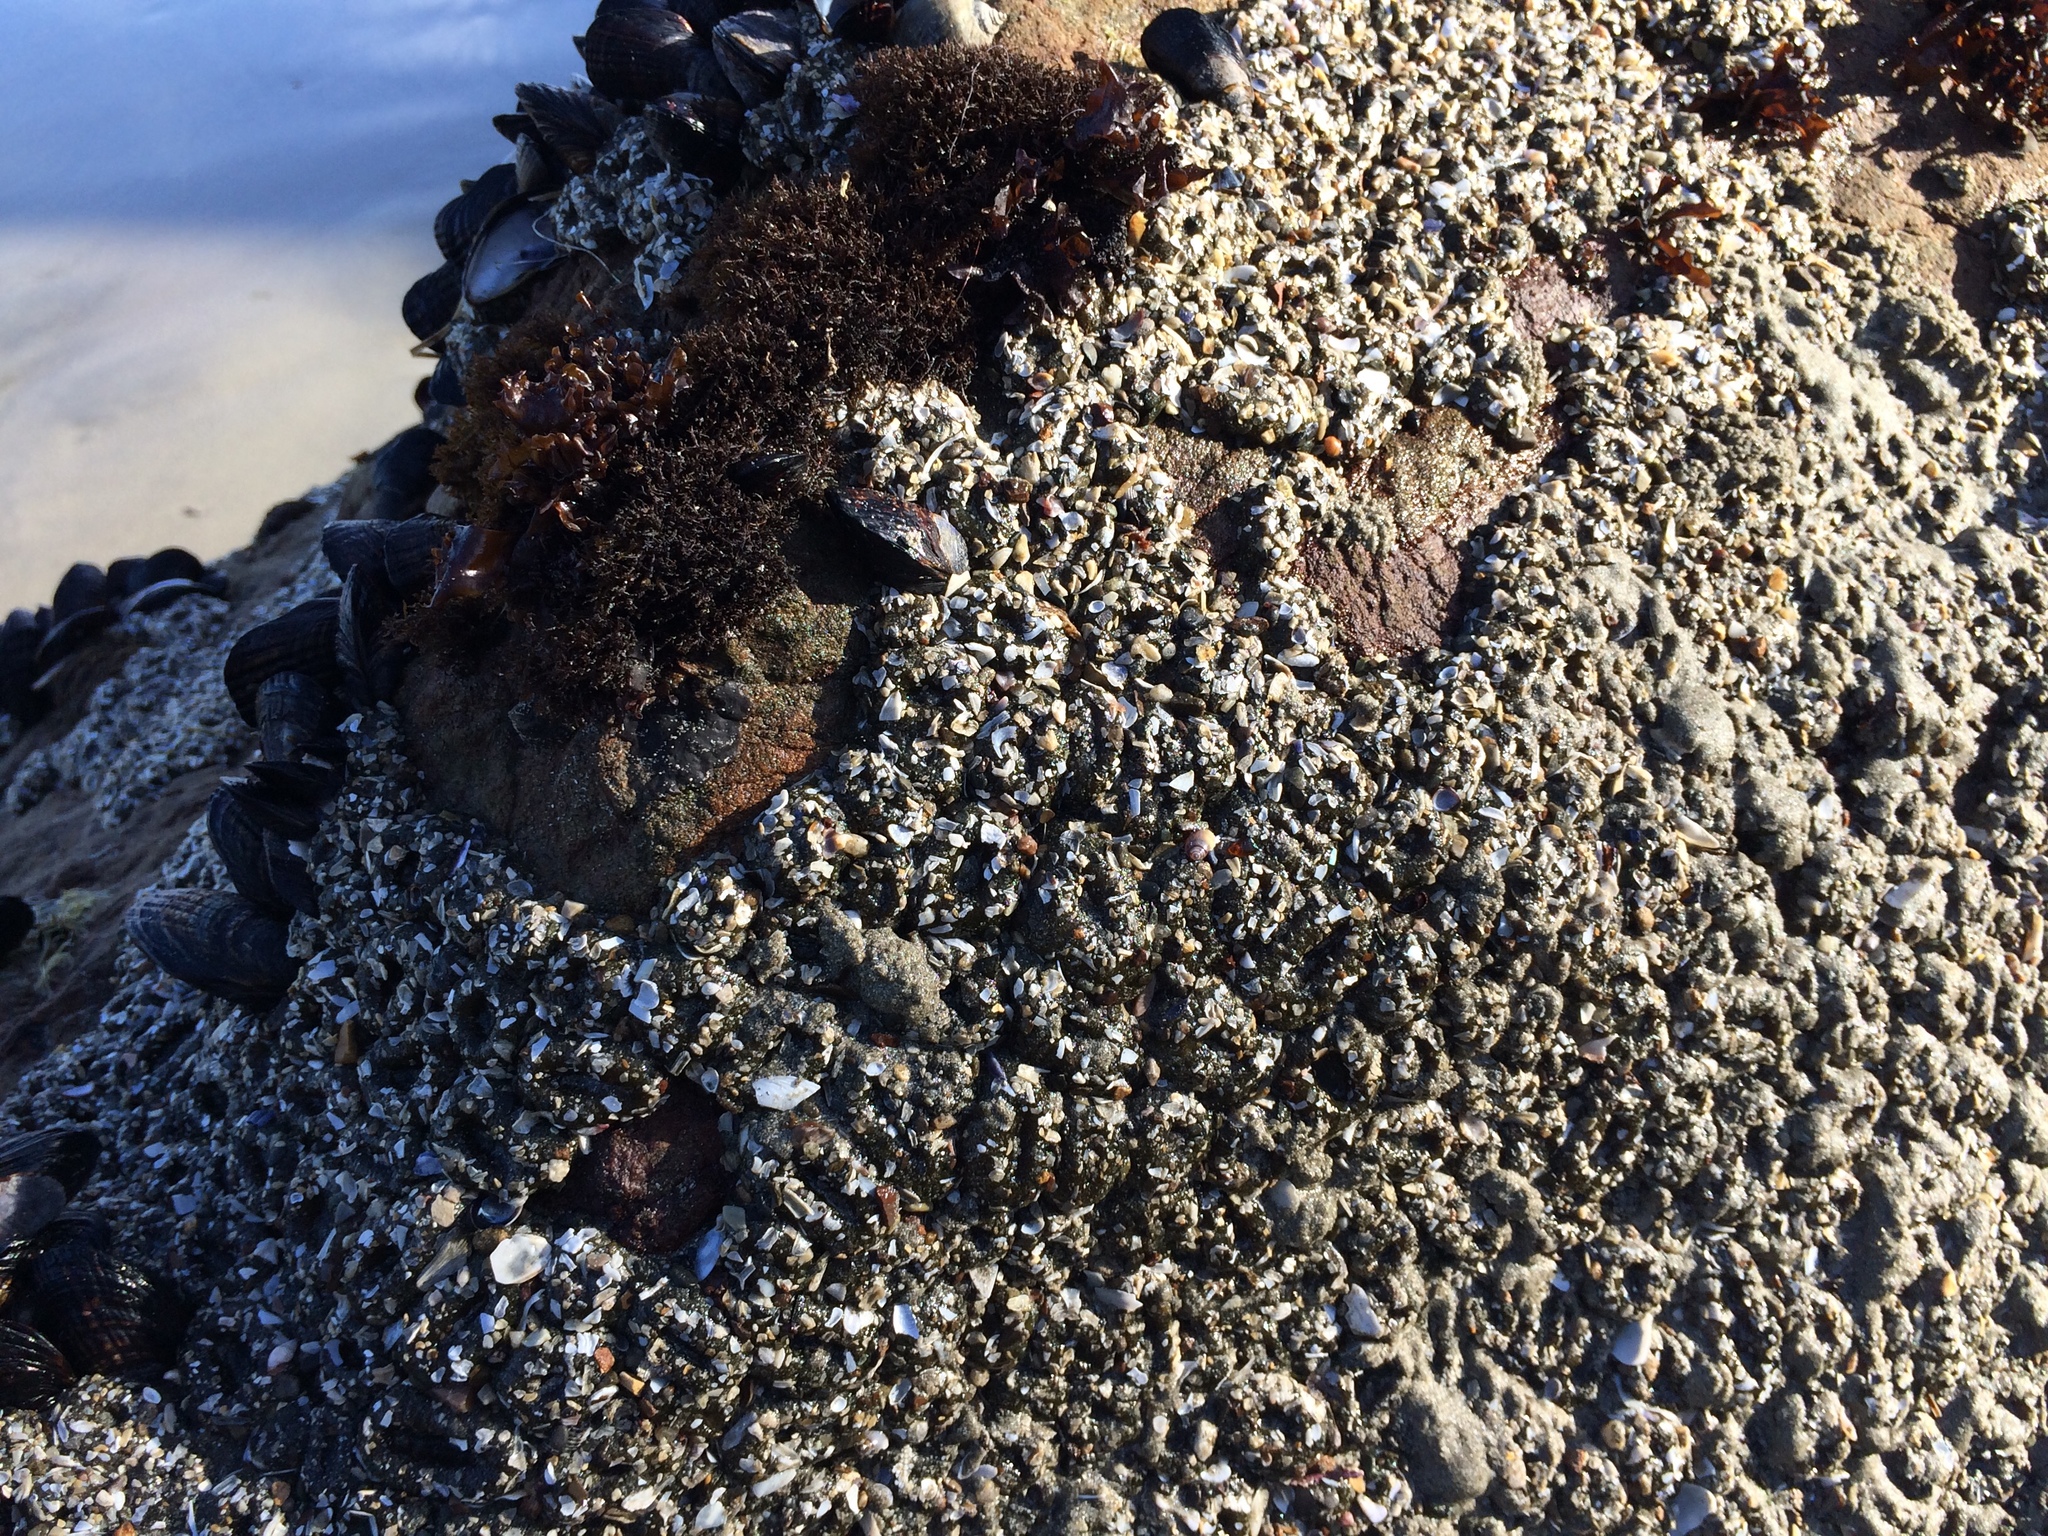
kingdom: Animalia
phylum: Cnidaria
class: Anthozoa
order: Actiniaria
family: Actiniidae
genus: Anthopleura
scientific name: Anthopleura elegantissima
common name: Clonal anemone
